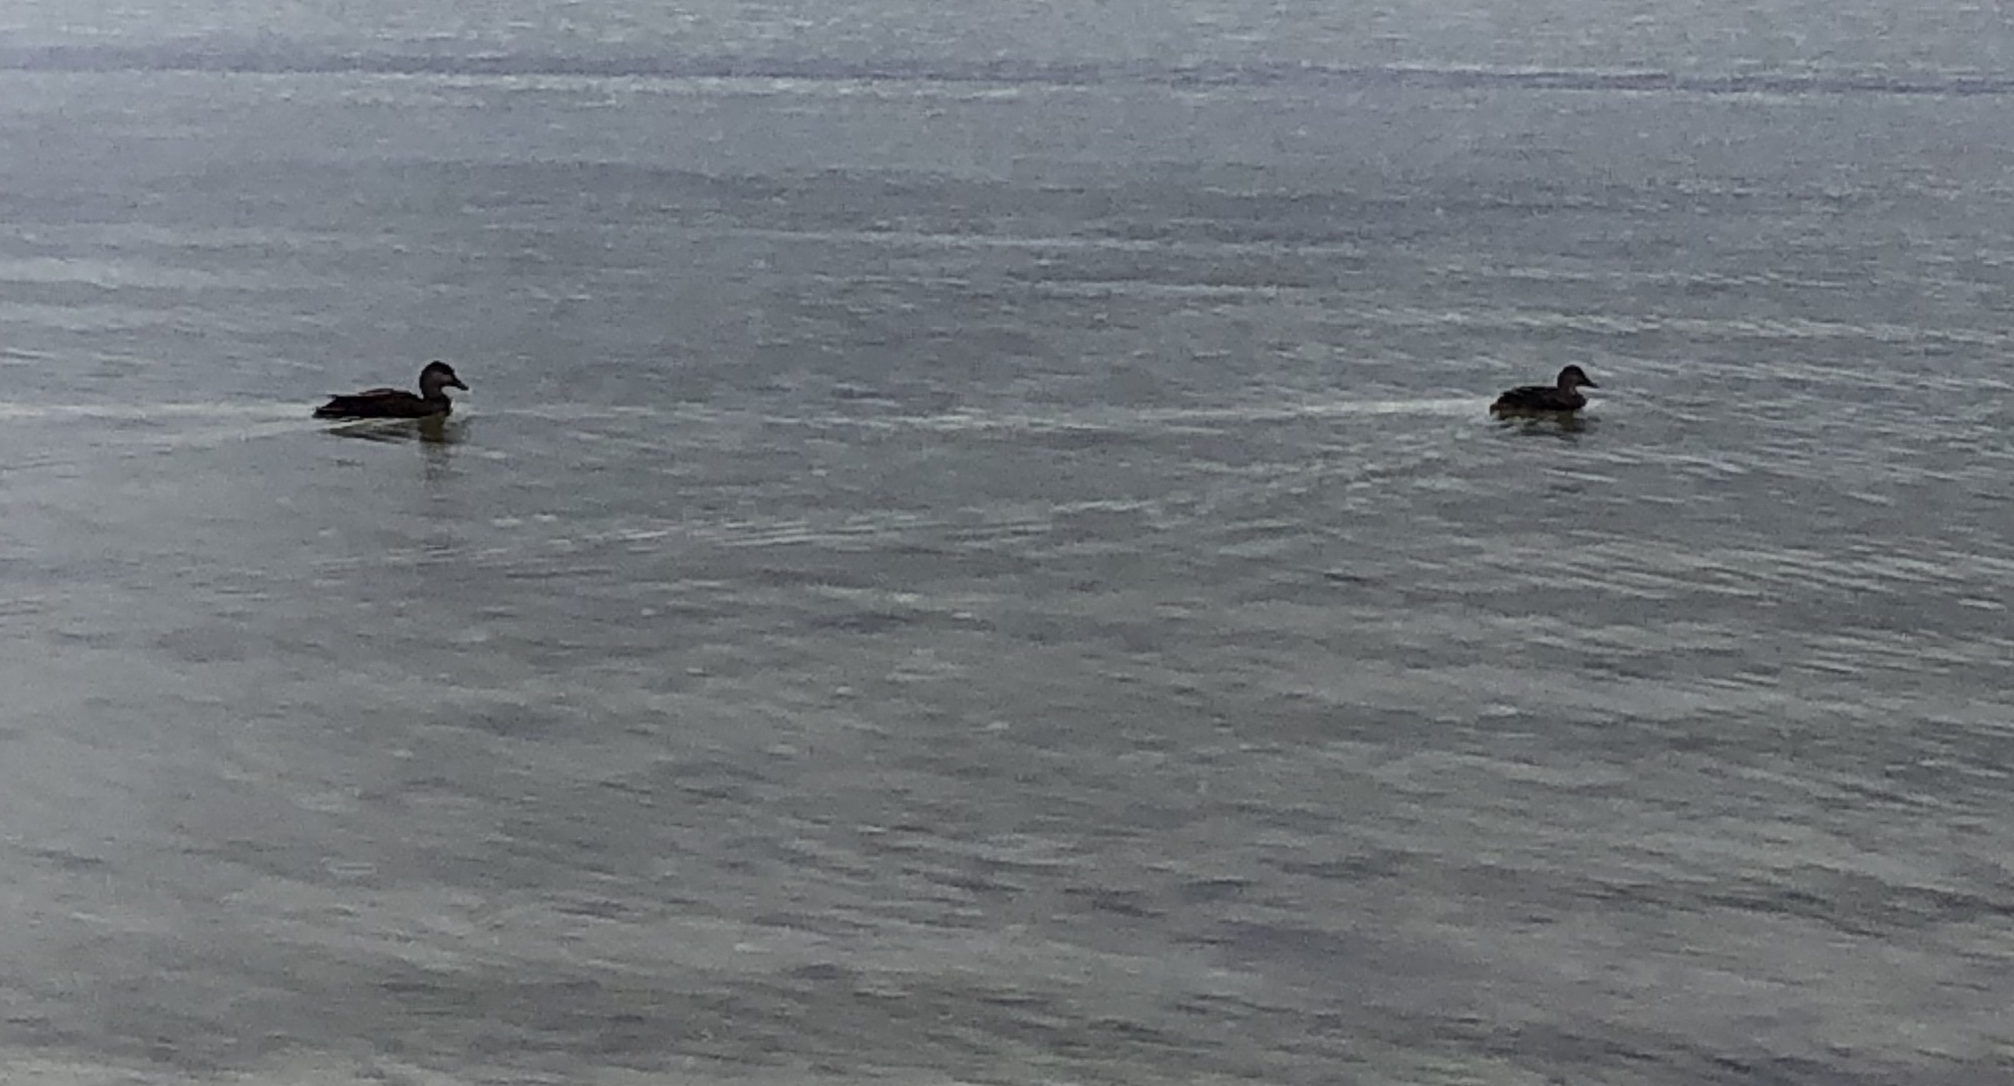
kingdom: Animalia
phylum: Chordata
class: Aves
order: Anseriformes
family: Anatidae
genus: Anas
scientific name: Anas rubripes
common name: American black duck
